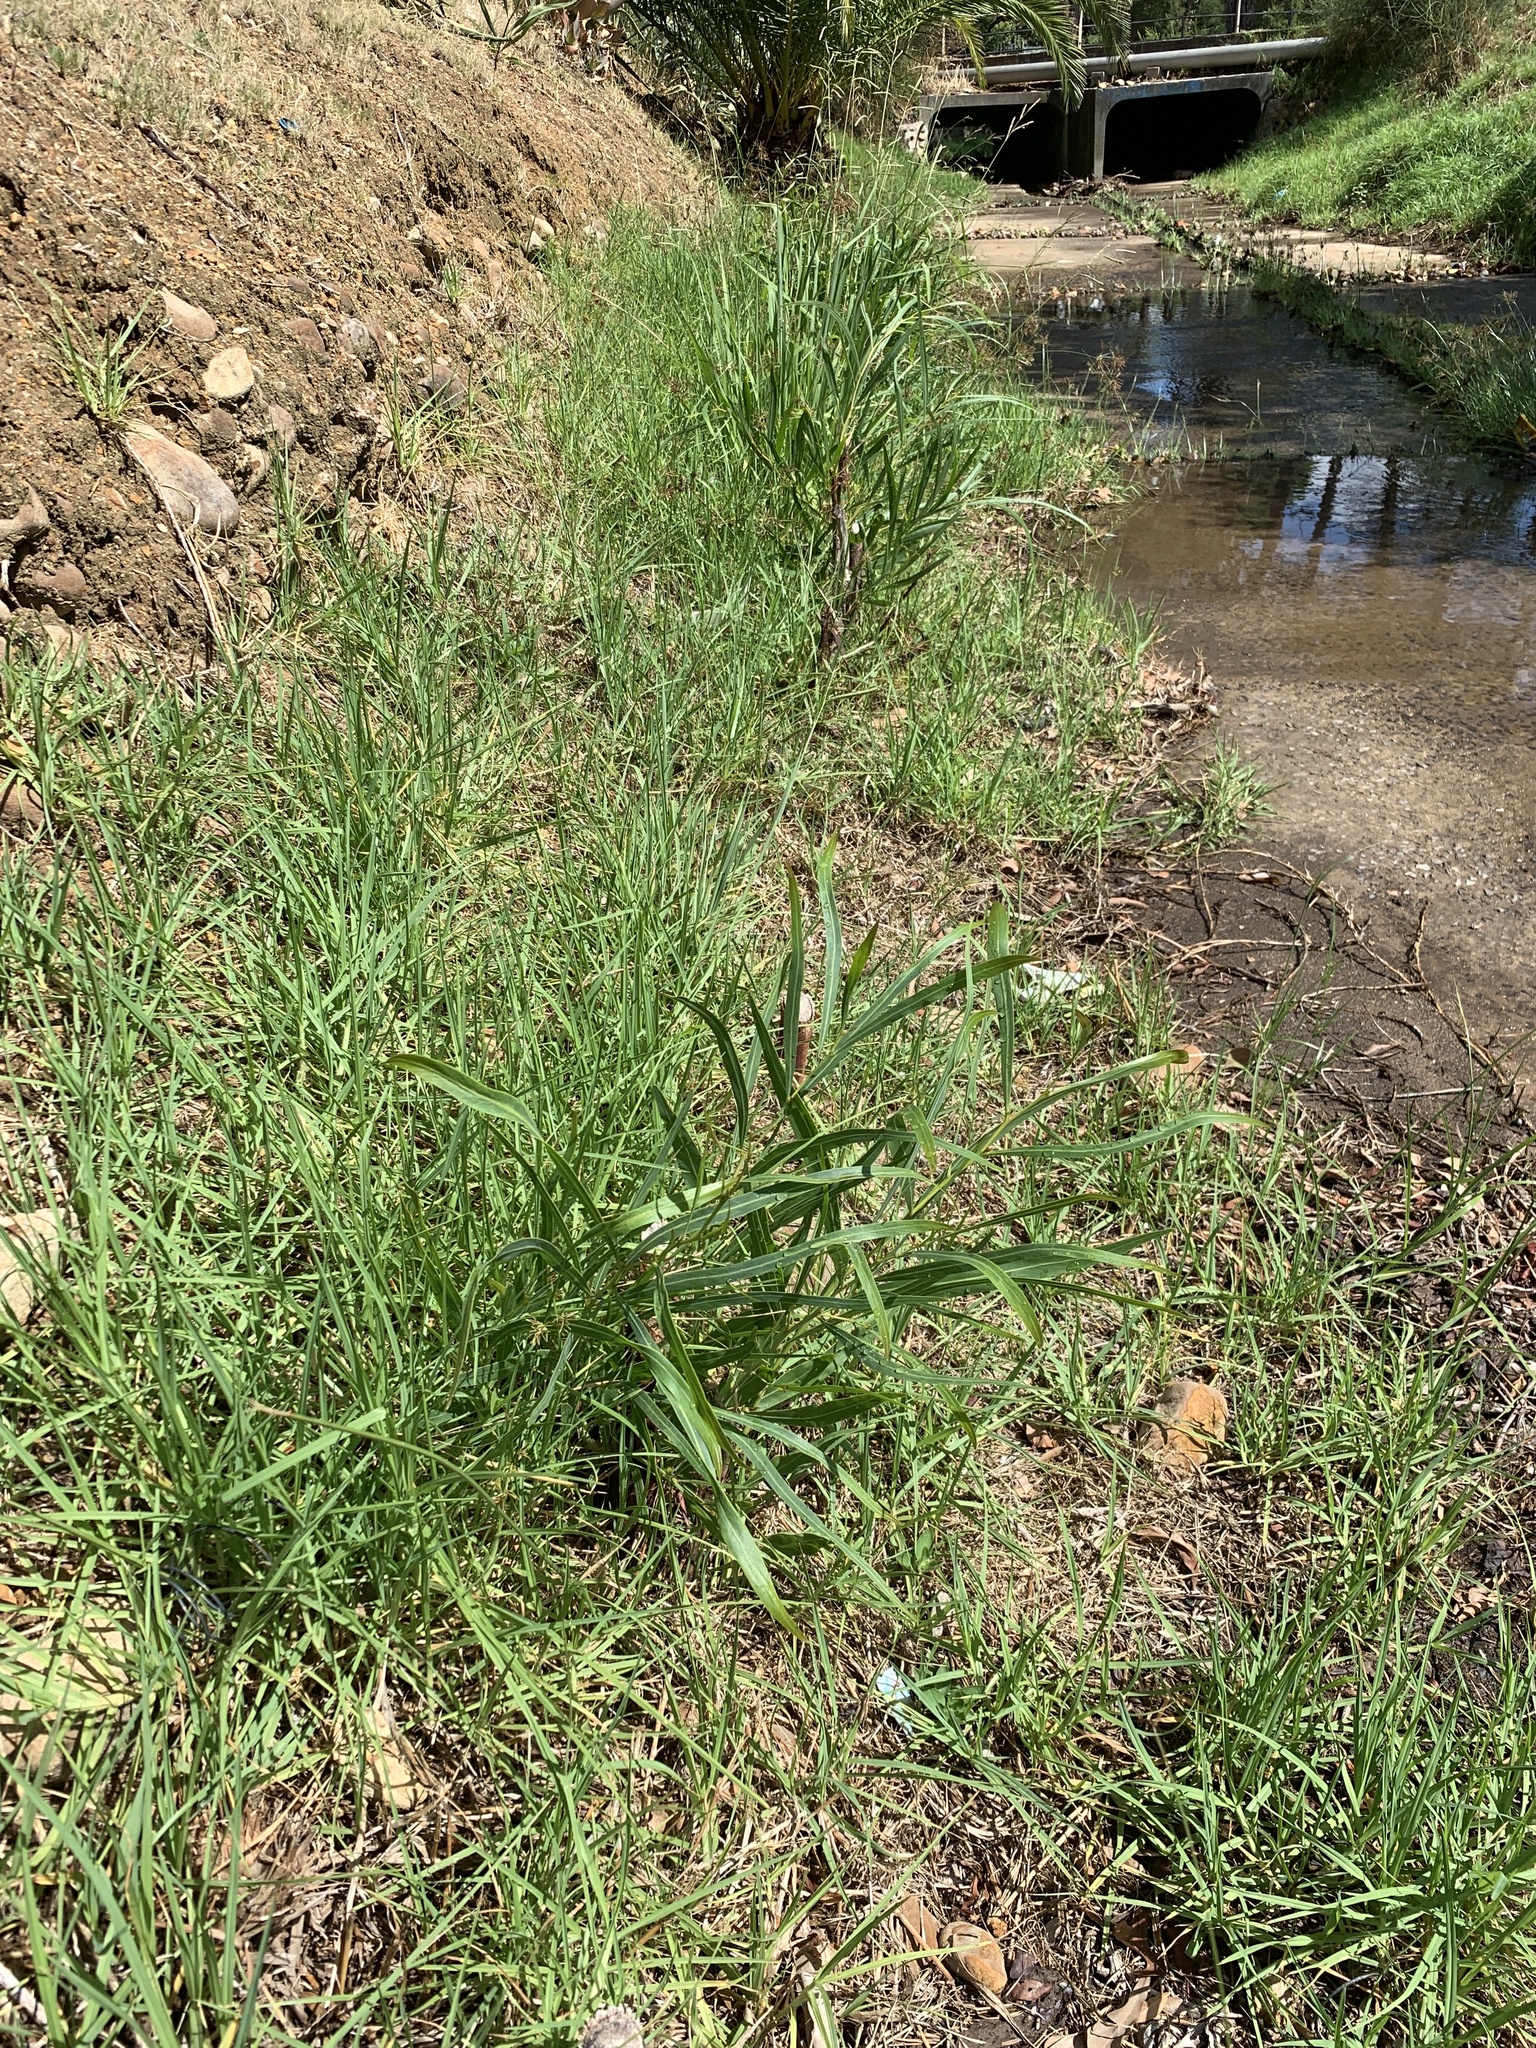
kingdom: Plantae
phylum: Tracheophyta
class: Magnoliopsida
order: Fabales
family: Fabaceae
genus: Acacia
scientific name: Acacia saligna
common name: Orange wattle
